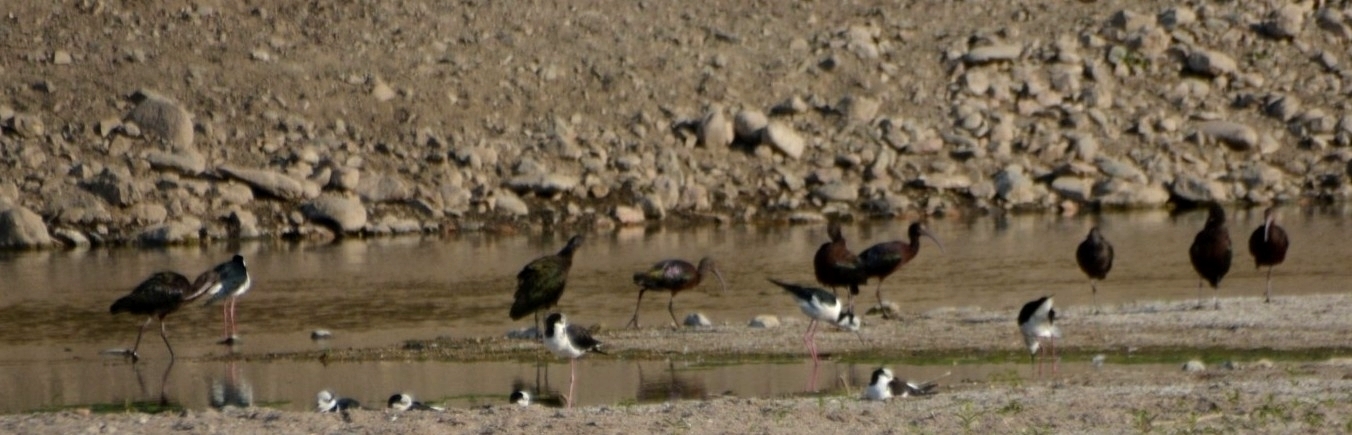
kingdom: Animalia
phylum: Chordata
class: Aves
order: Pelecaniformes
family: Threskiornithidae
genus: Plegadis
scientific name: Plegadis chihi
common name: White-faced ibis
